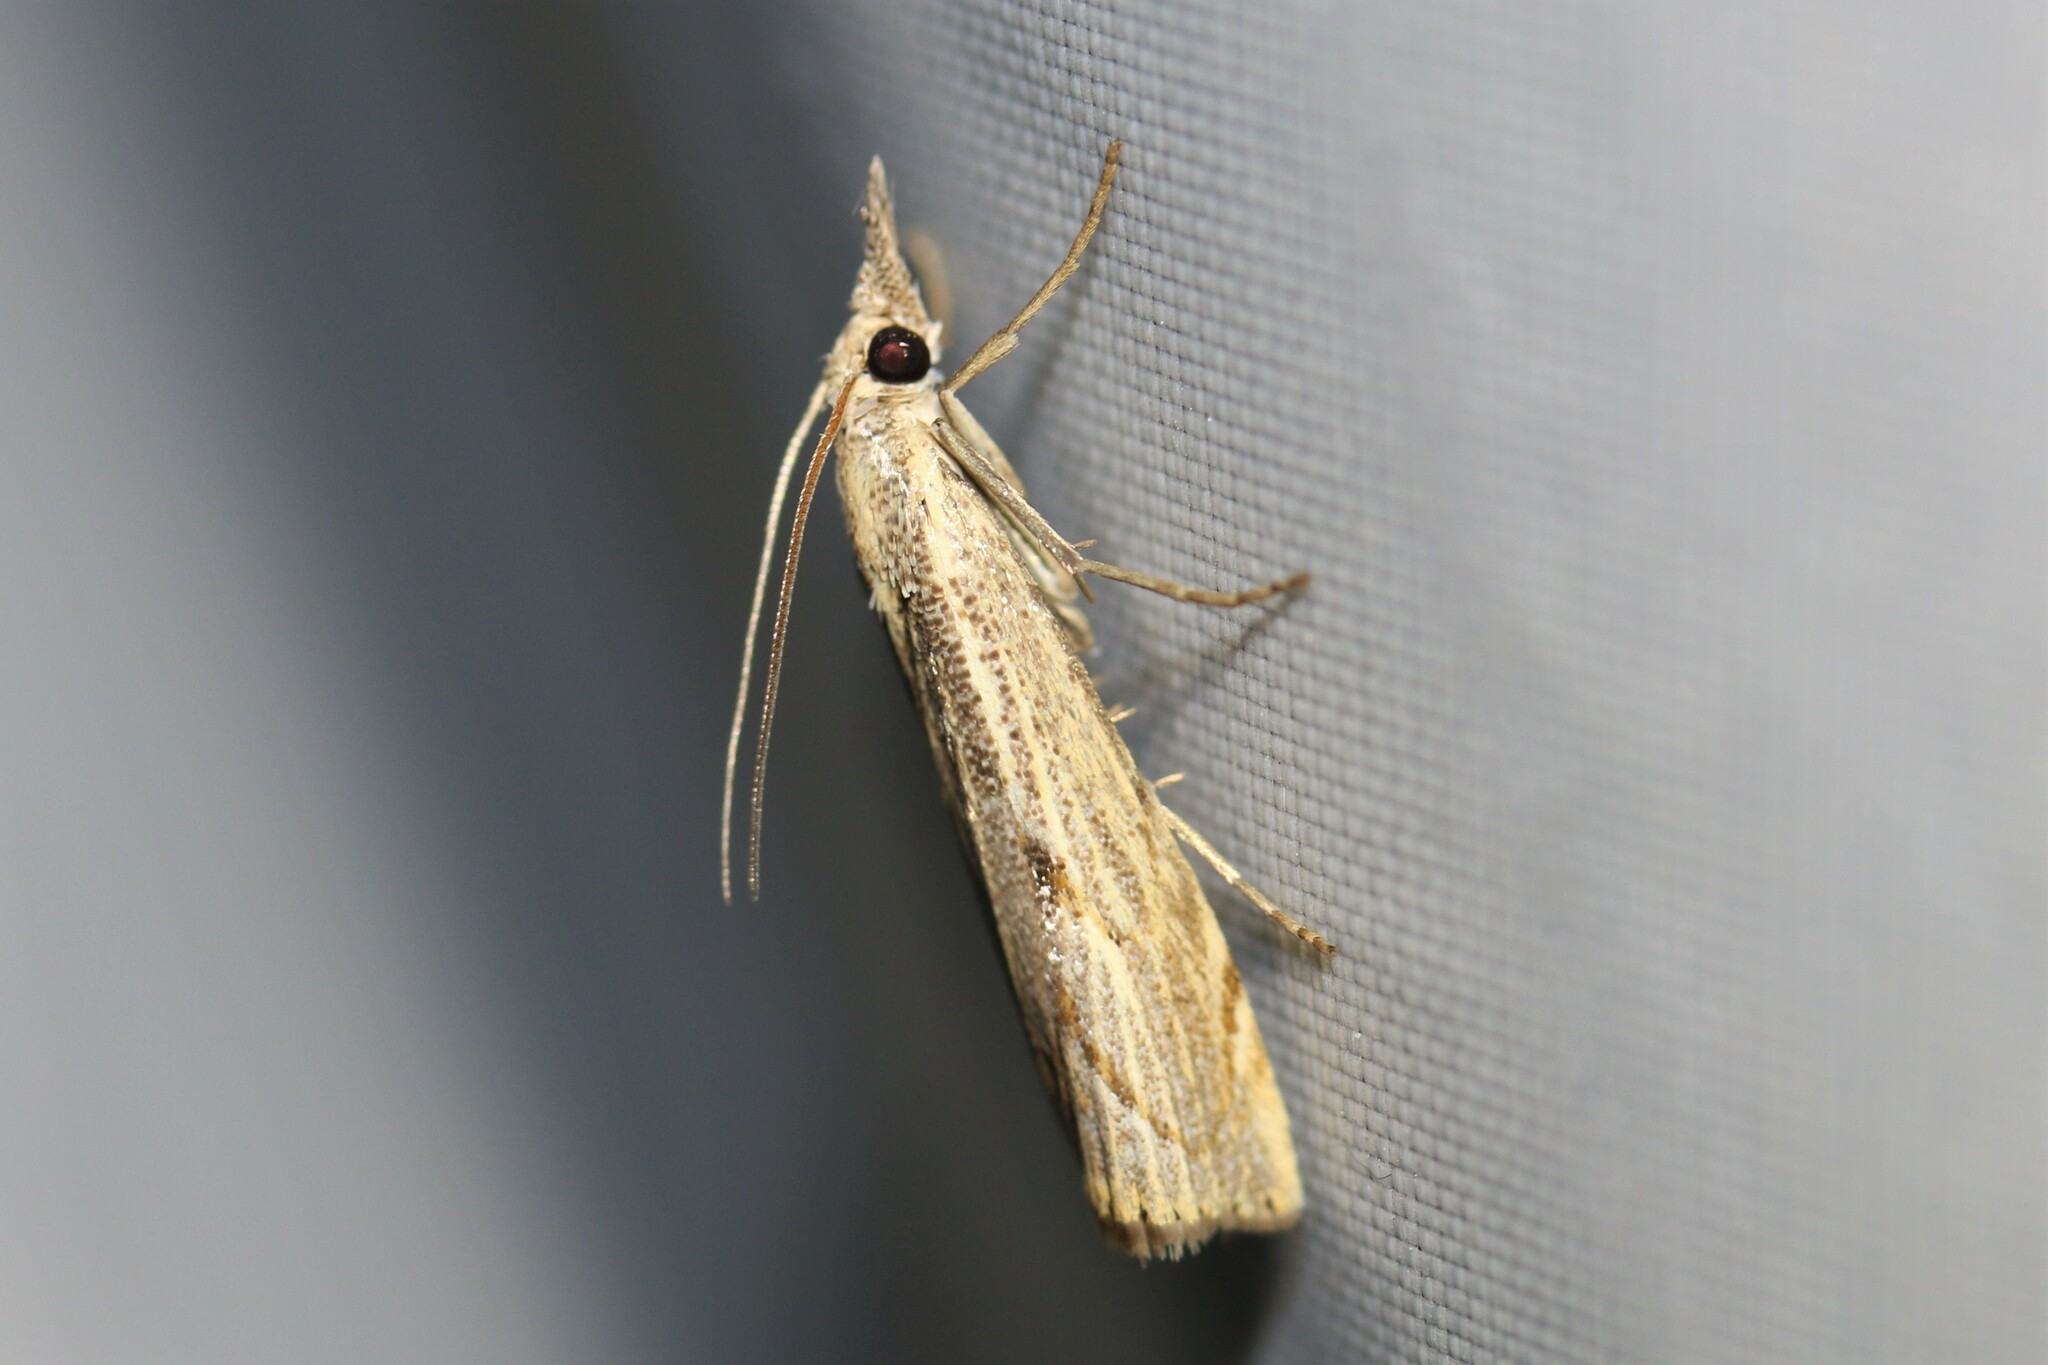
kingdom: Animalia
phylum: Arthropoda
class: Insecta
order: Lepidoptera
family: Crambidae
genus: Agriphila
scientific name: Agriphila geniculea
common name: Elbow-stripe grass-veneer
